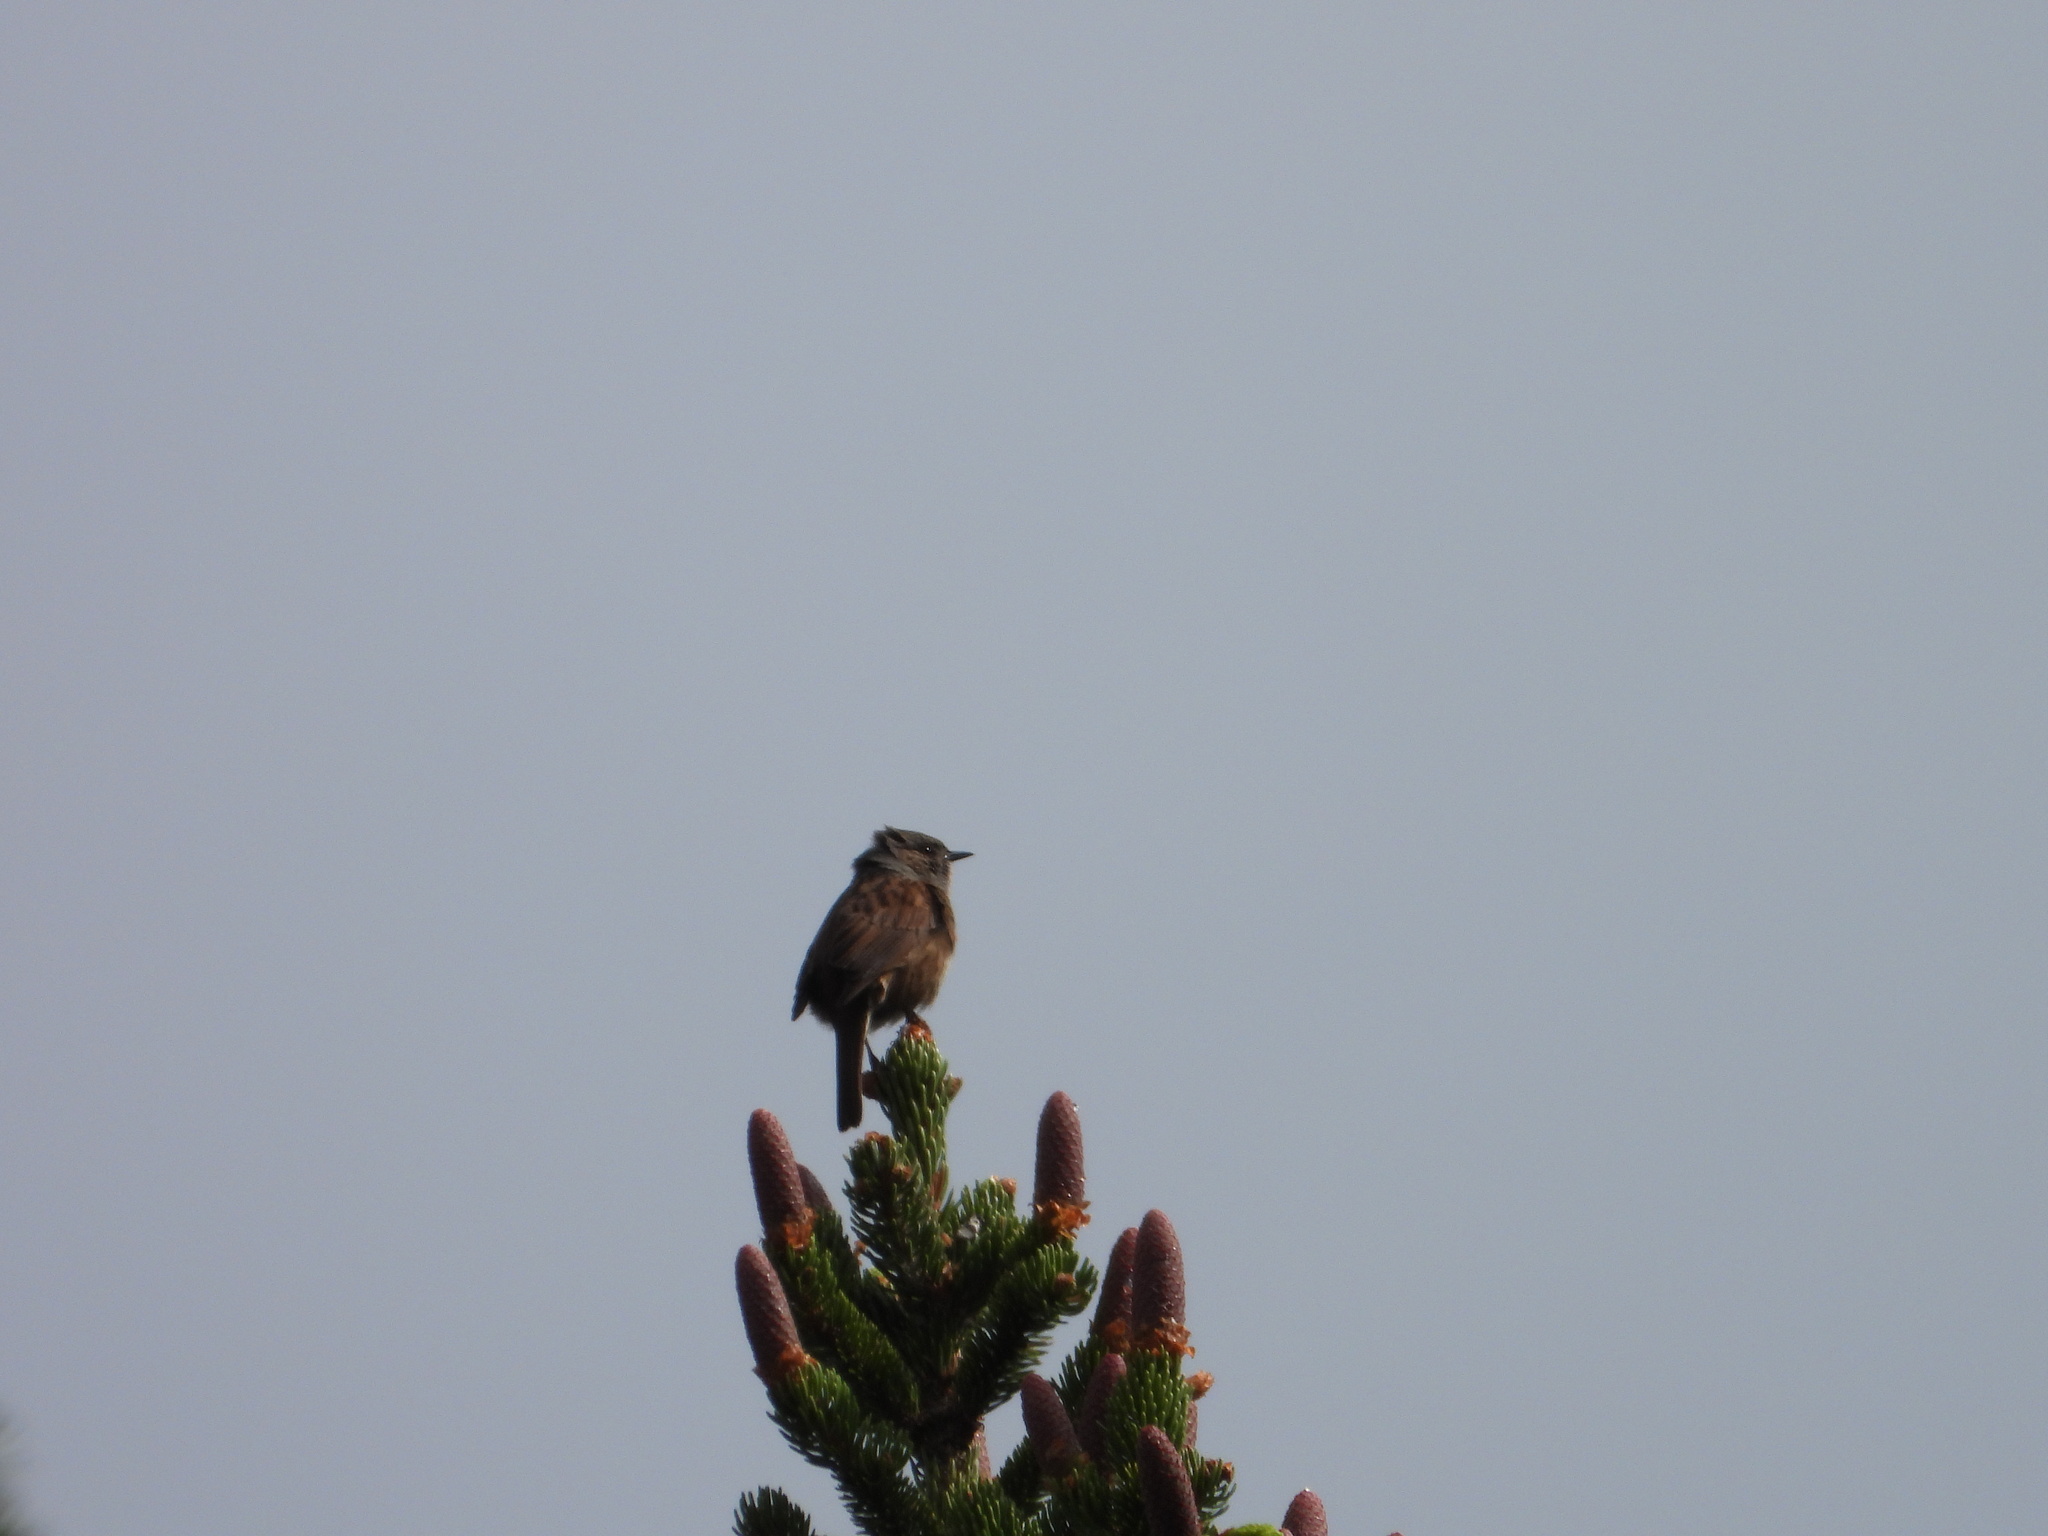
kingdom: Animalia
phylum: Chordata
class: Aves
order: Passeriformes
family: Prunellidae
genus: Prunella
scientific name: Prunella modularis
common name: Dunnock
